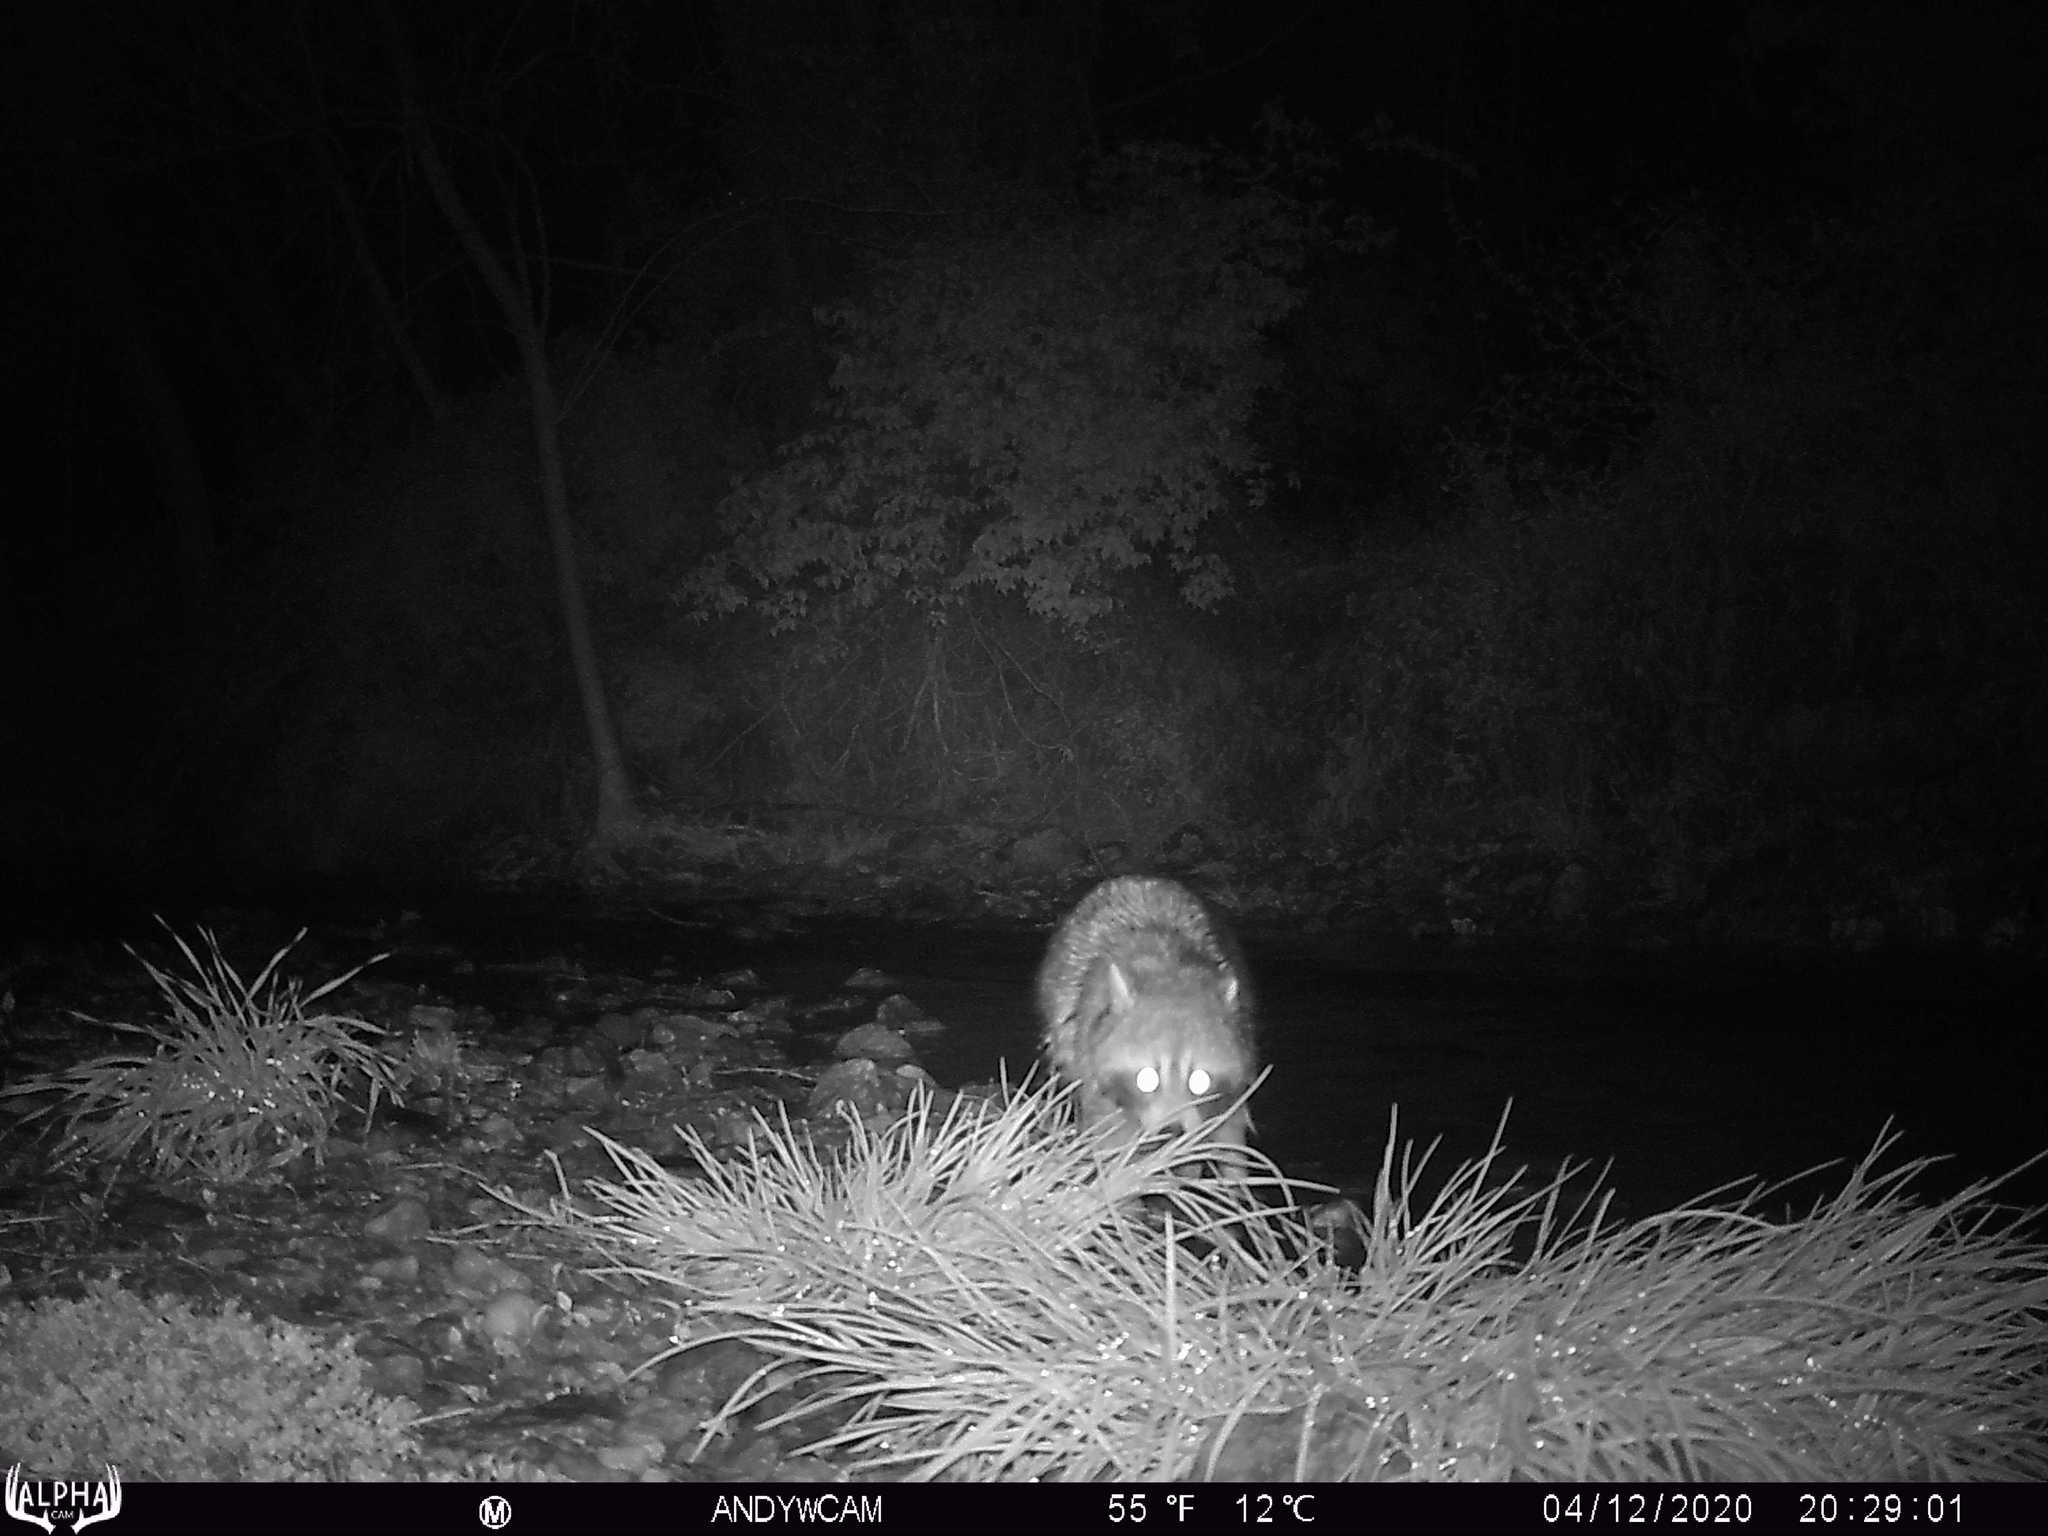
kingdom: Animalia
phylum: Chordata
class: Mammalia
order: Carnivora
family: Procyonidae
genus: Procyon
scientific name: Procyon lotor
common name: Raccoon
